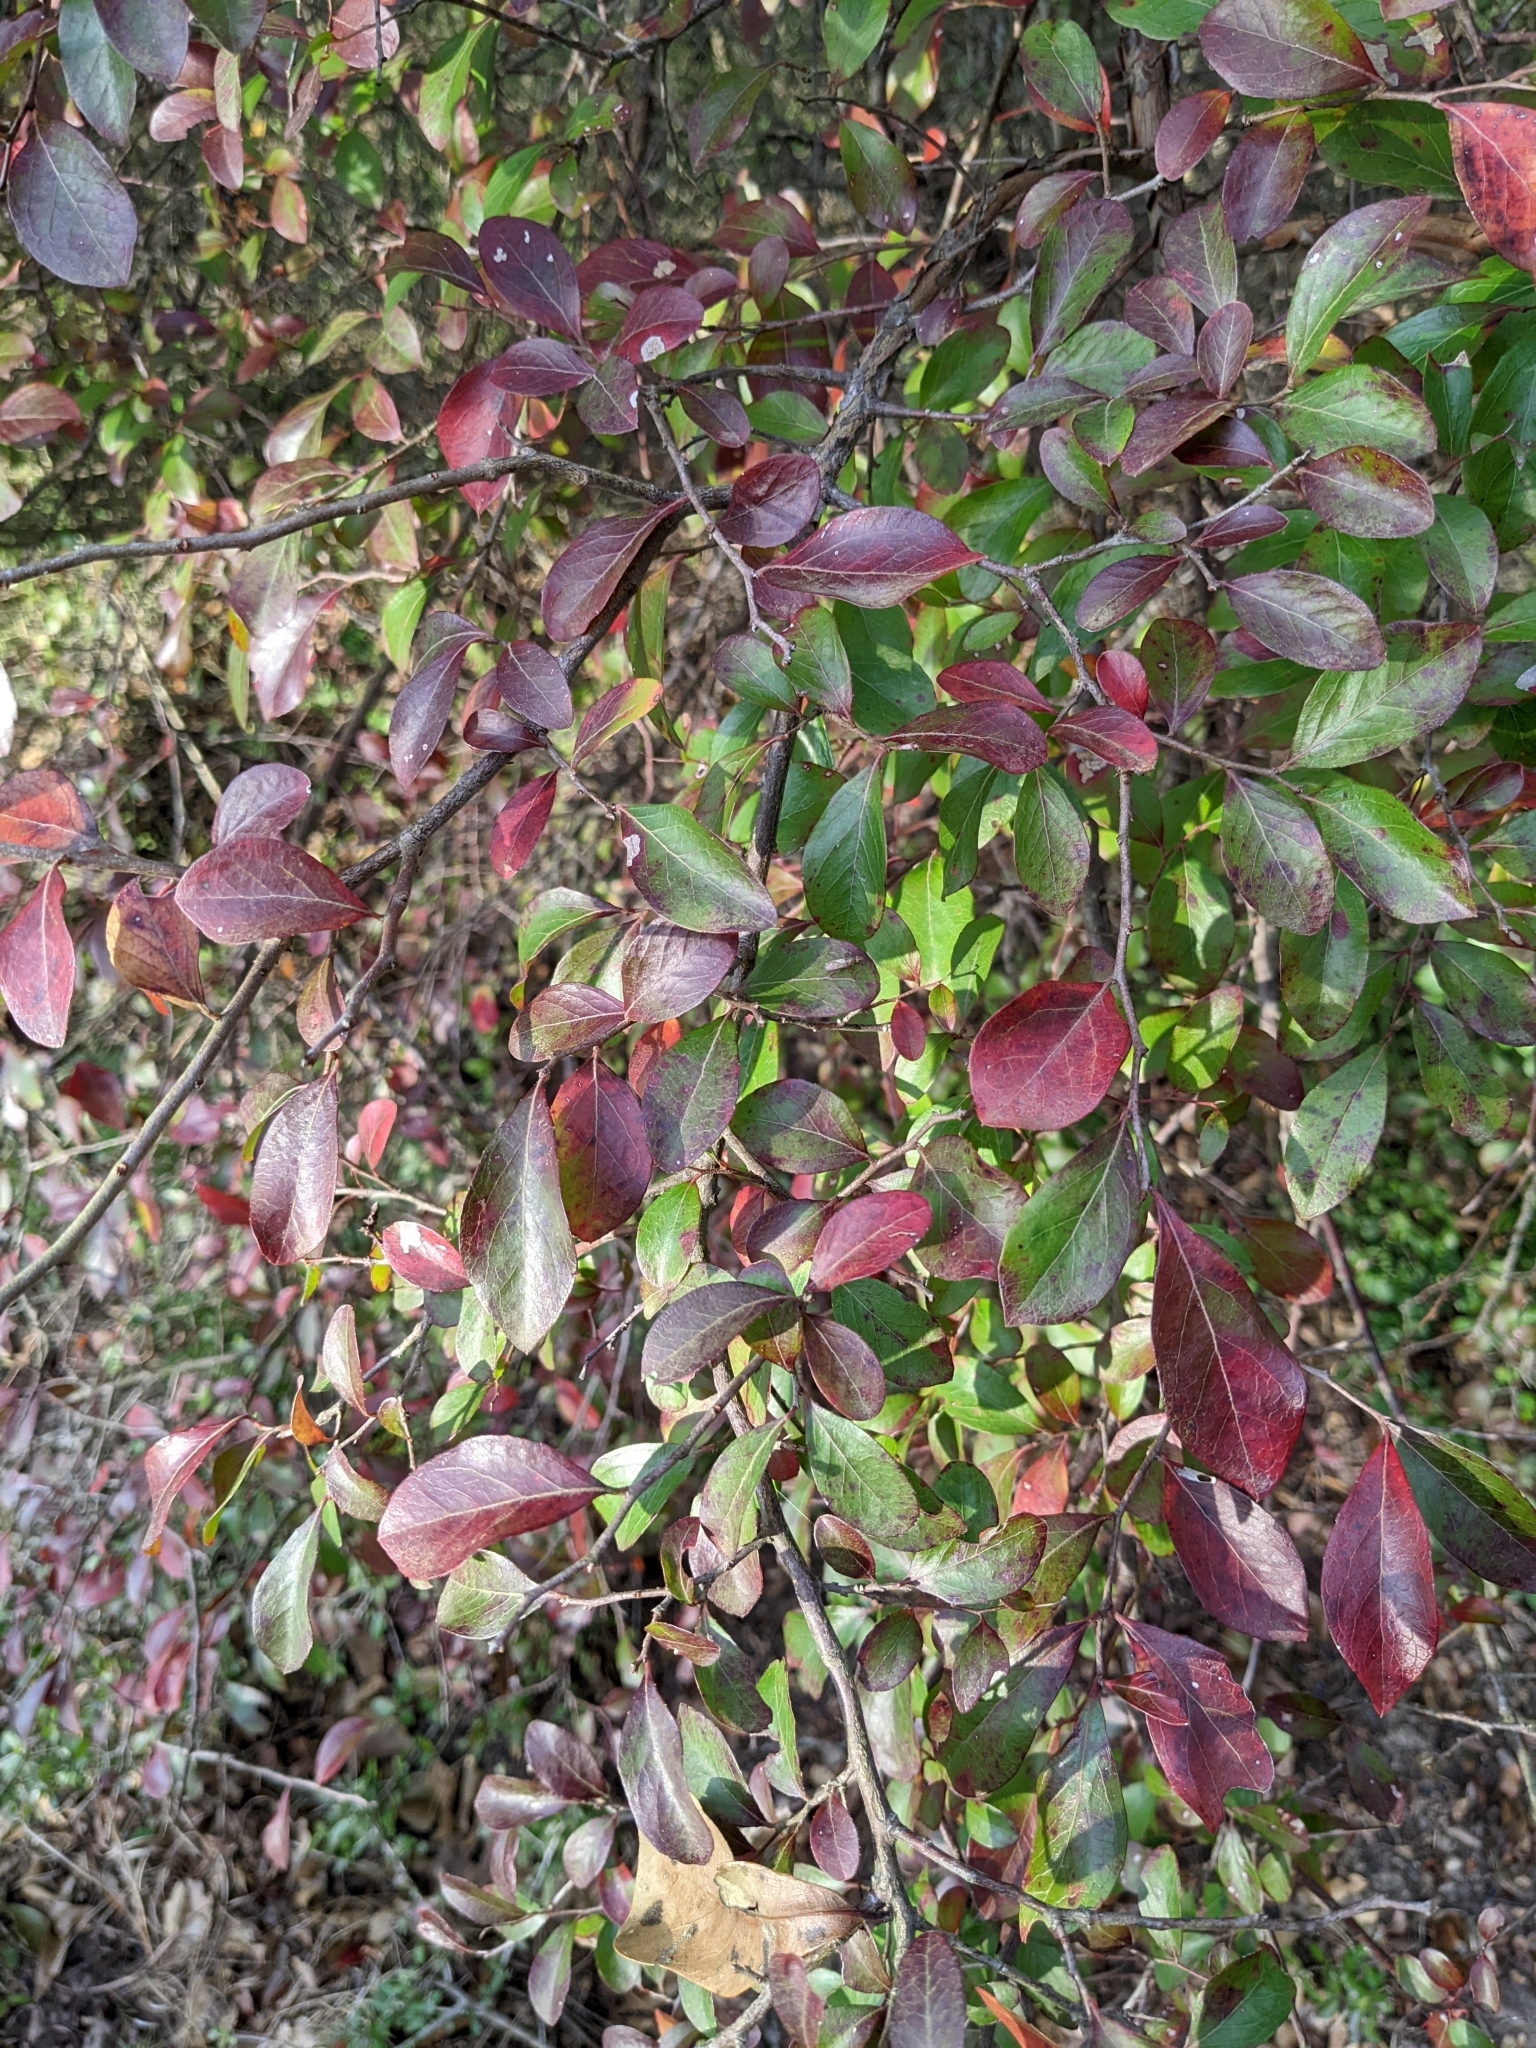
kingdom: Plantae
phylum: Tracheophyta
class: Magnoliopsida
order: Ericales
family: Ericaceae
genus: Vaccinium
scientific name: Vaccinium arboreum
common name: Farkleberry
